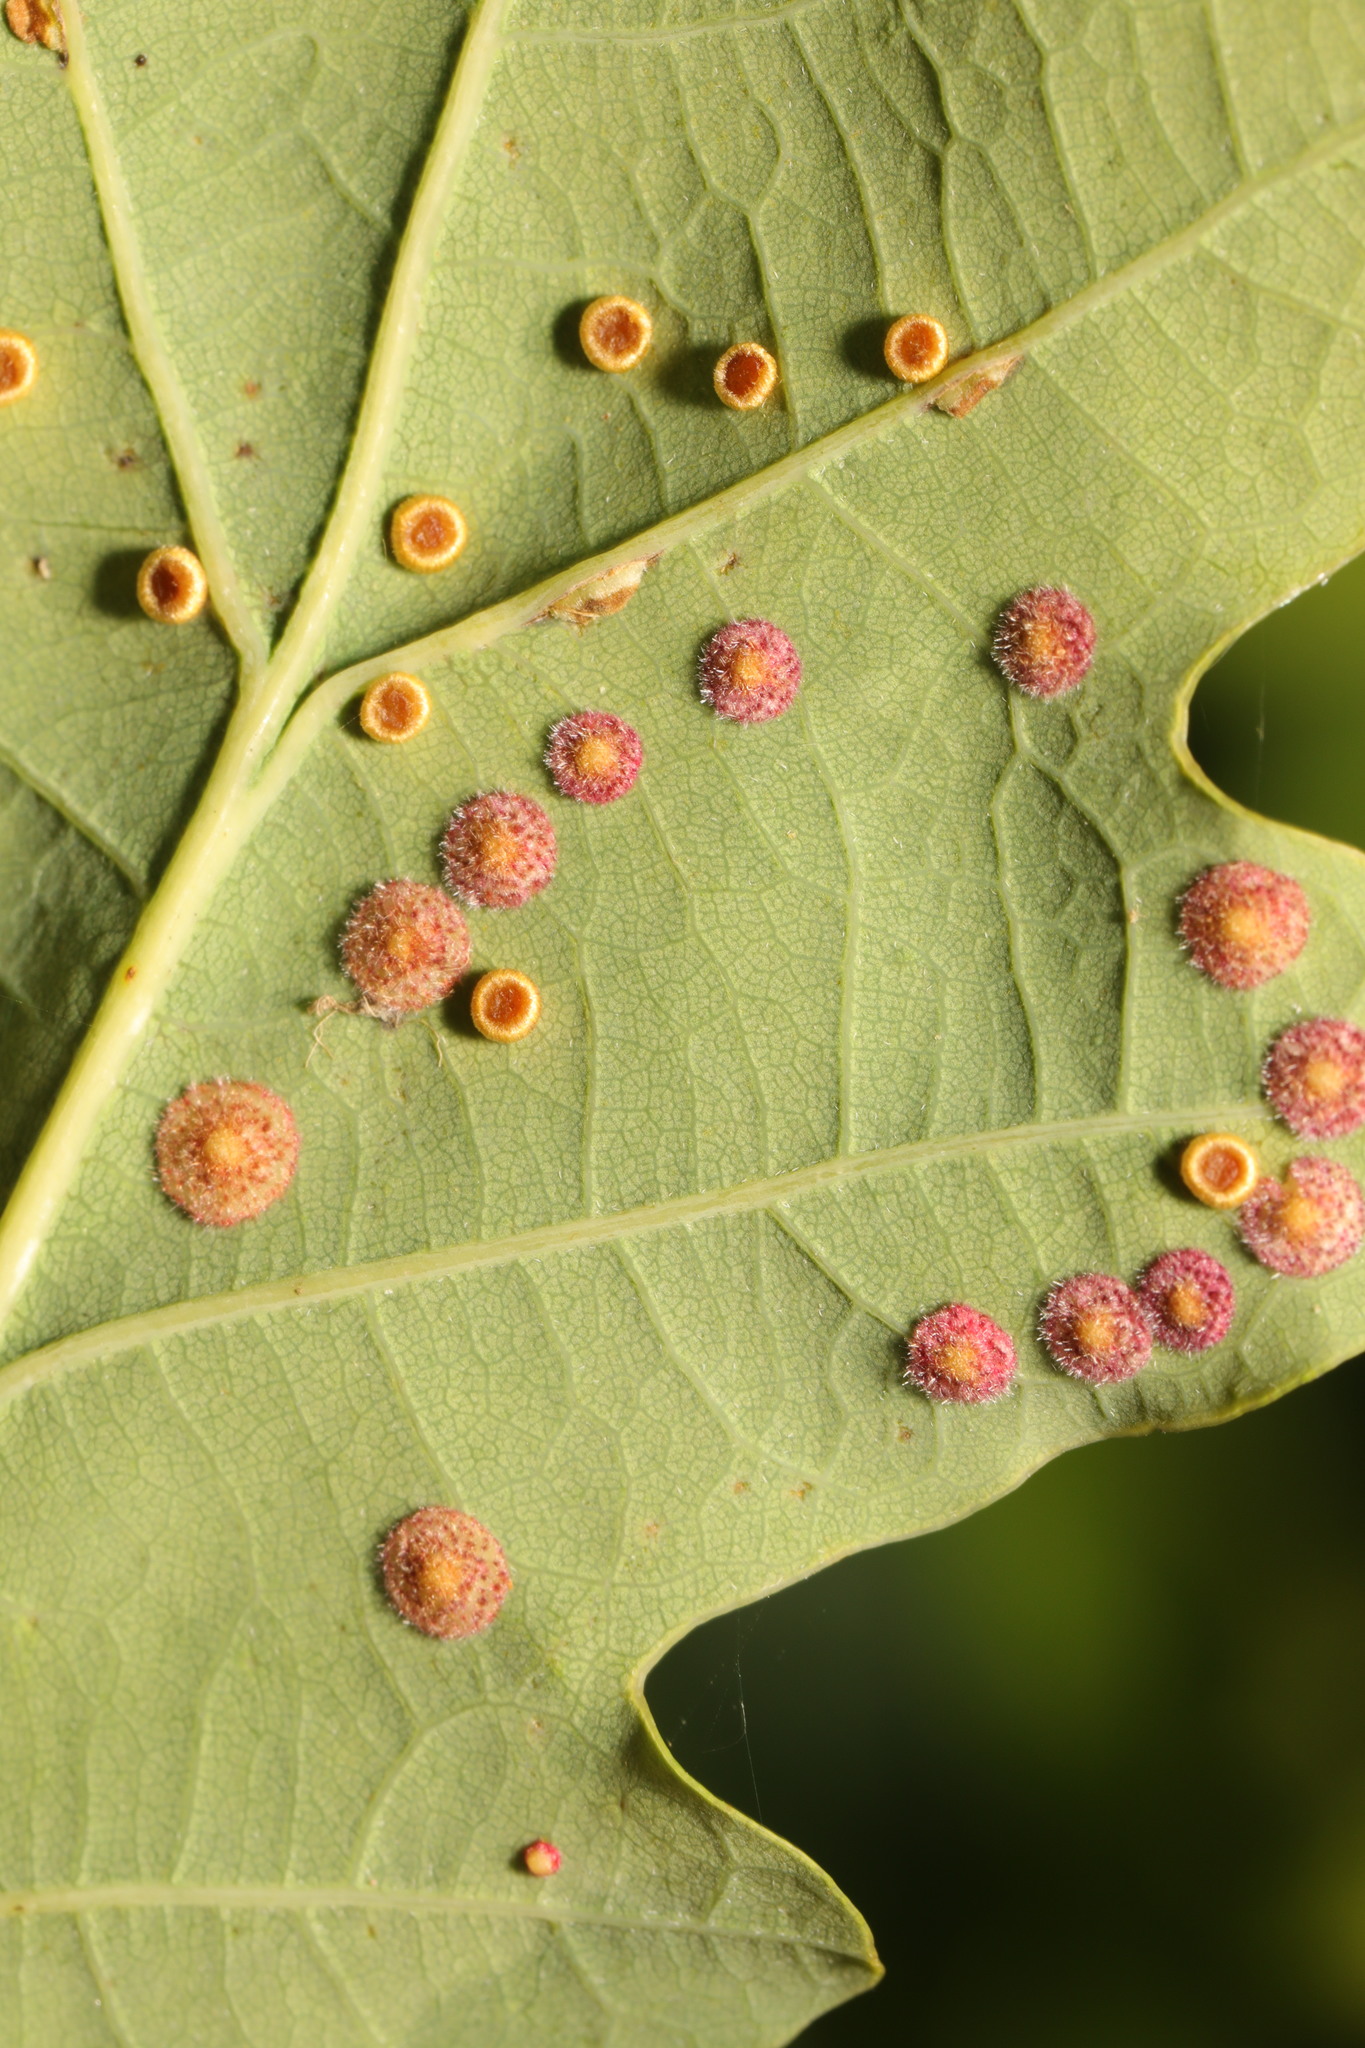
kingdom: Animalia
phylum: Arthropoda
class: Insecta
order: Hymenoptera
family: Cynipidae
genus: Neuroterus
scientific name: Neuroterus quercusbaccarum
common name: Common spangle gall
